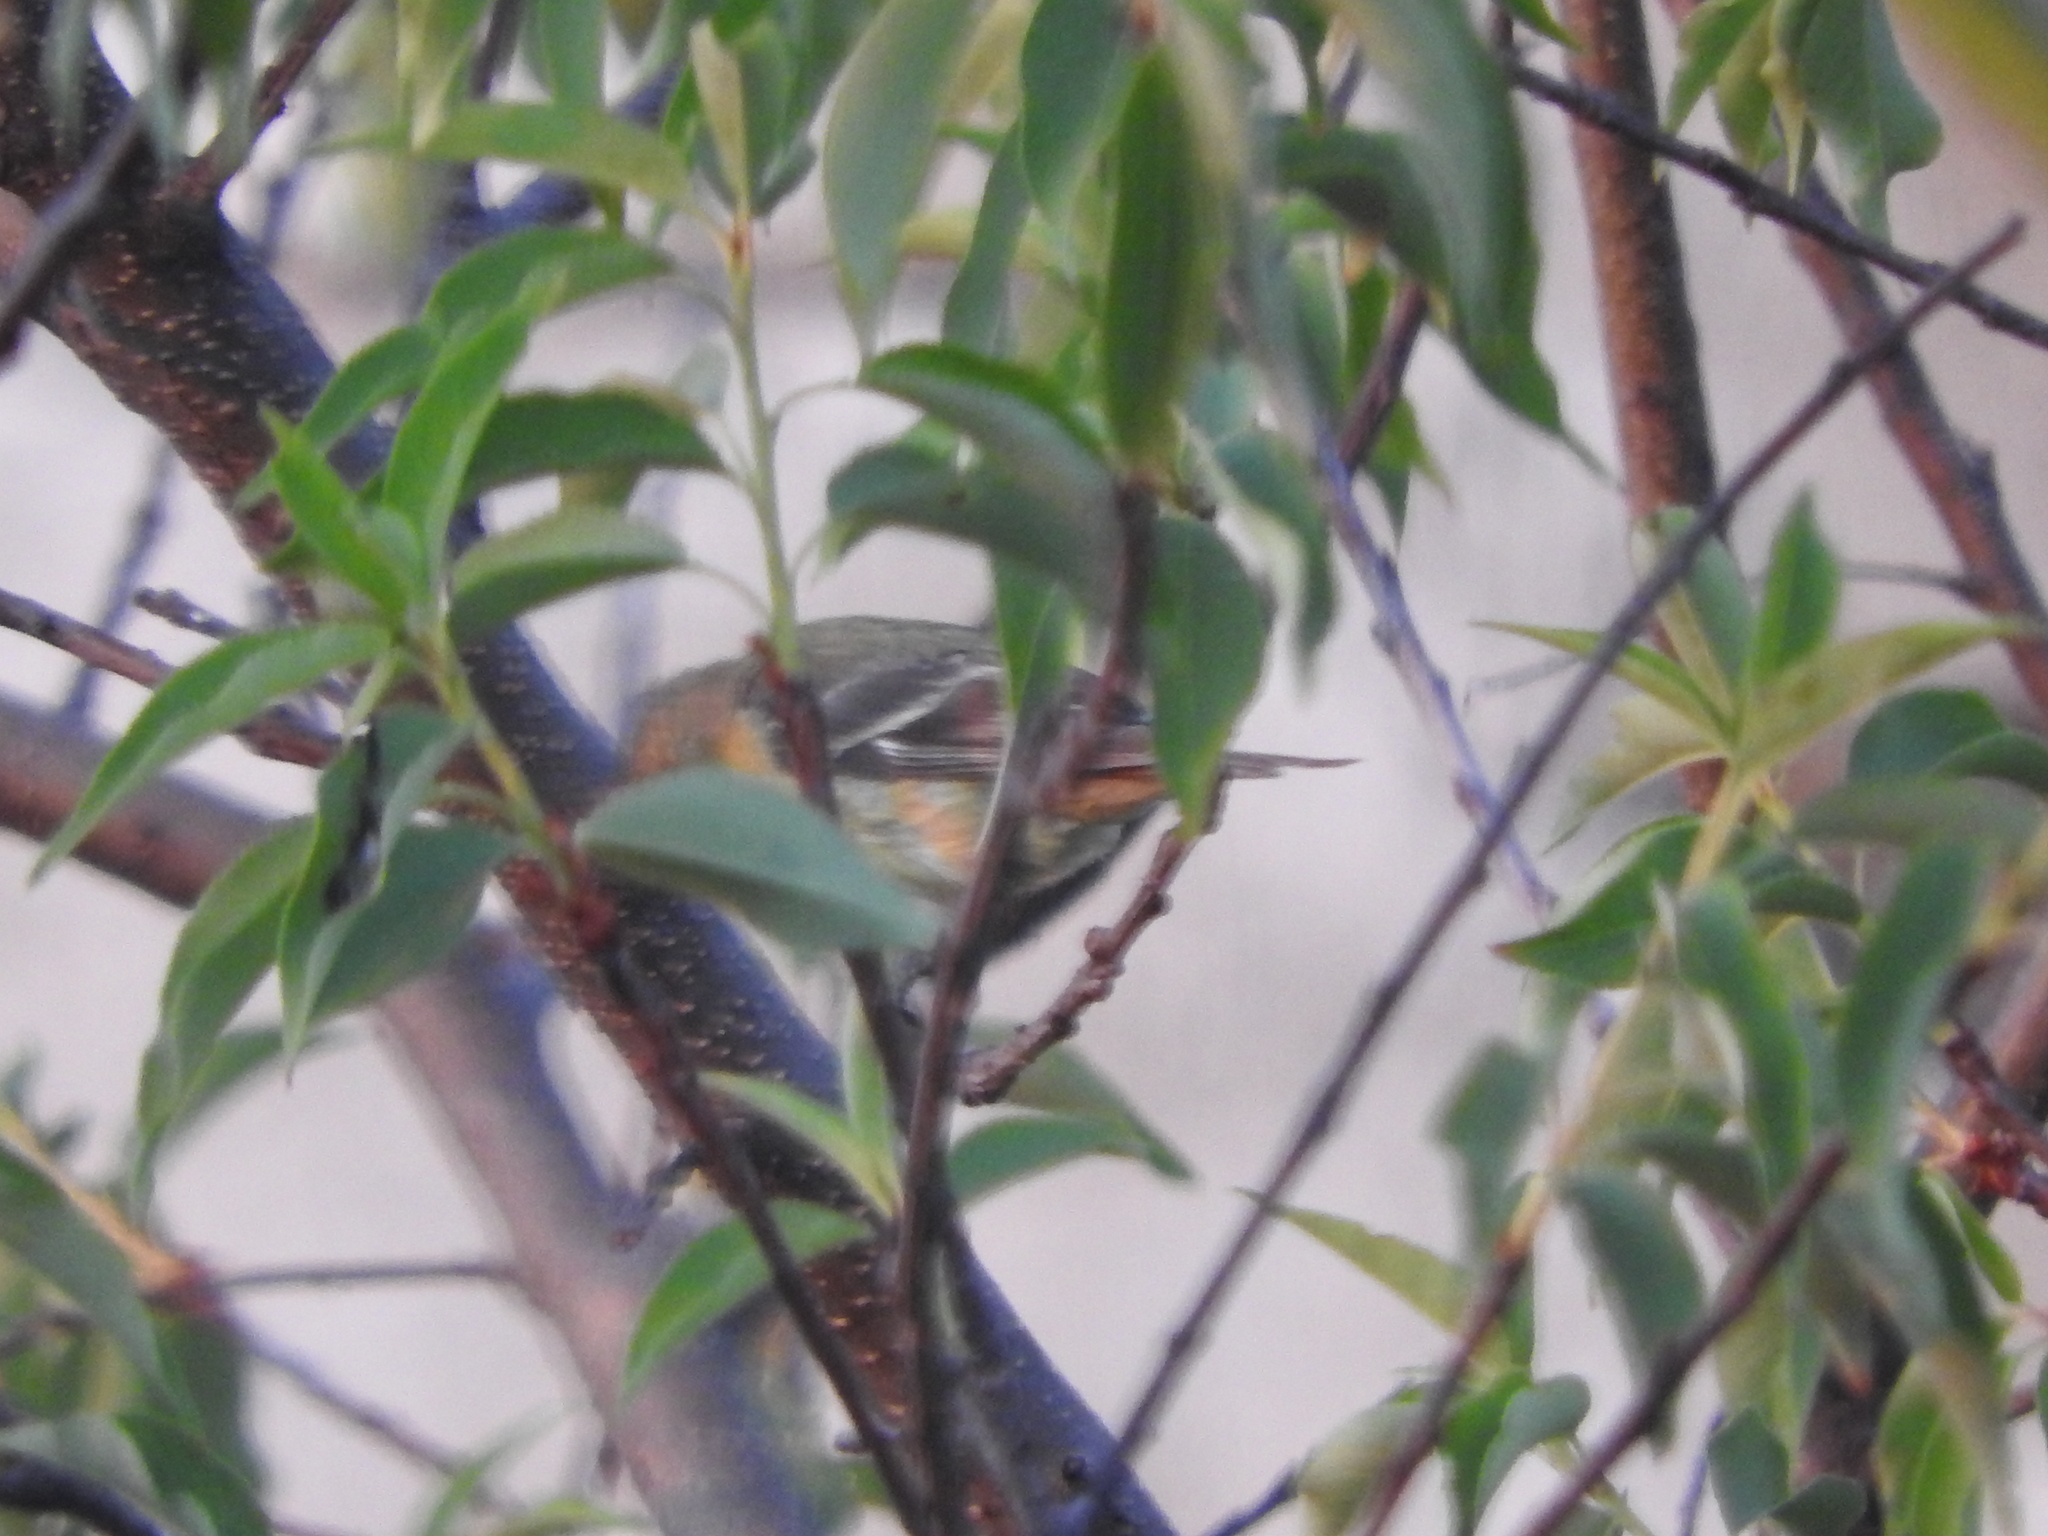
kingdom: Animalia
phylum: Chordata
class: Aves
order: Passeriformes
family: Fringillidae
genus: Spinus
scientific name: Spinus psaltria
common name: Lesser goldfinch
